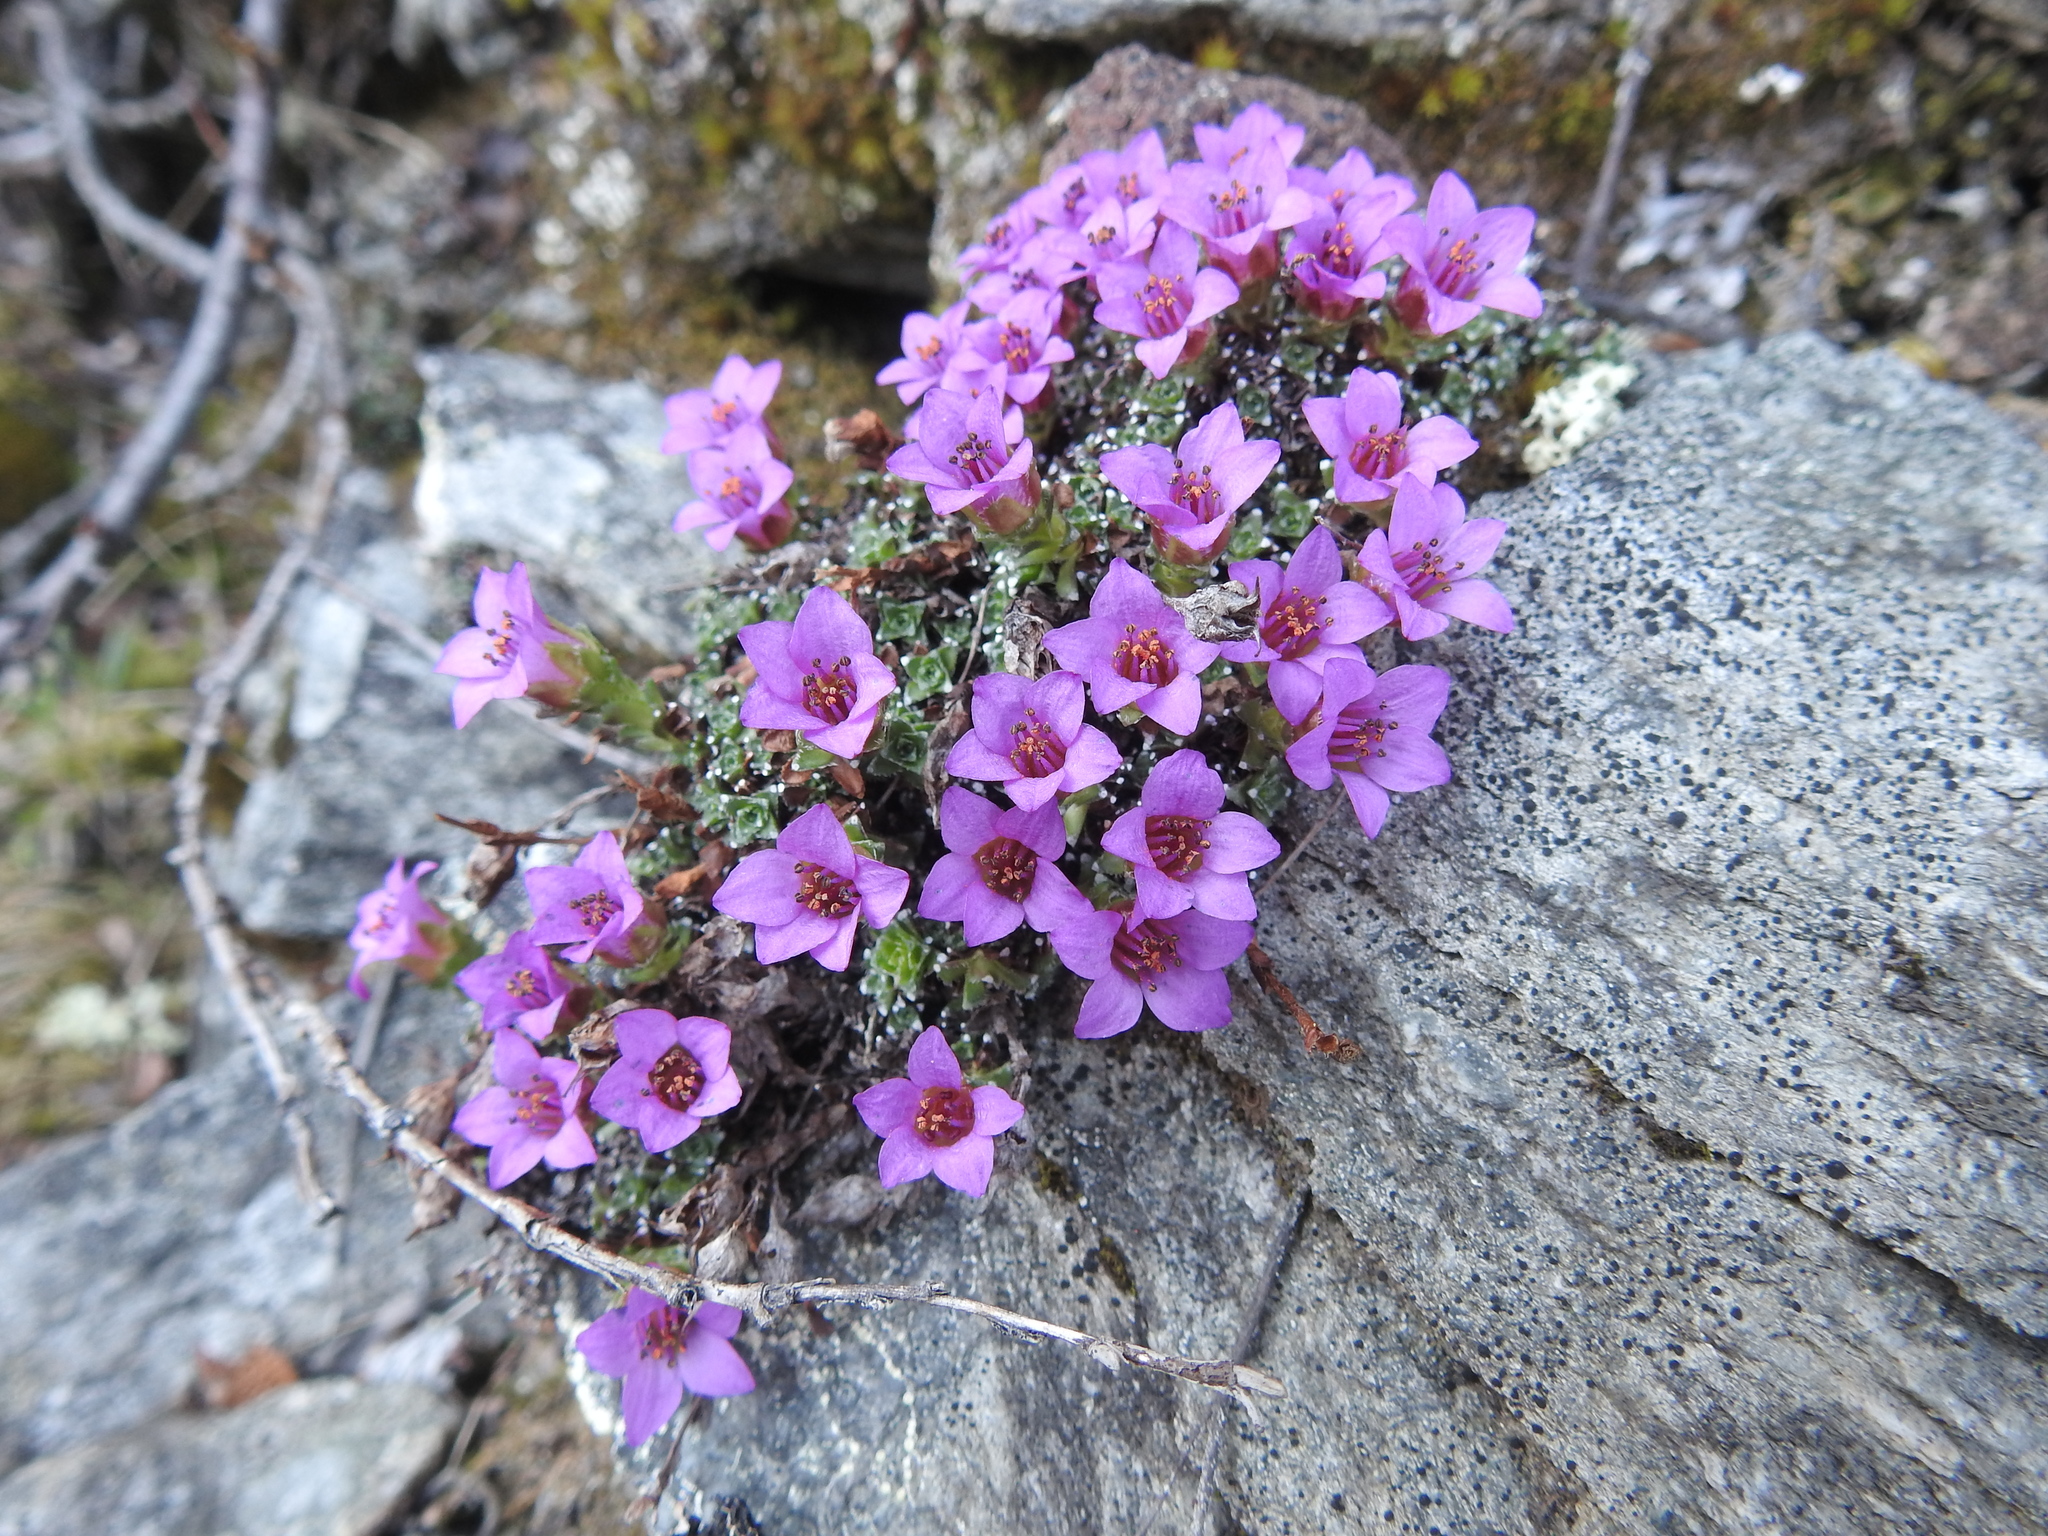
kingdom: Plantae
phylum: Tracheophyta
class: Magnoliopsida
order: Saxifragales
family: Saxifragaceae
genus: Saxifraga
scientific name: Saxifraga oppositifolia
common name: Purple saxifrage
